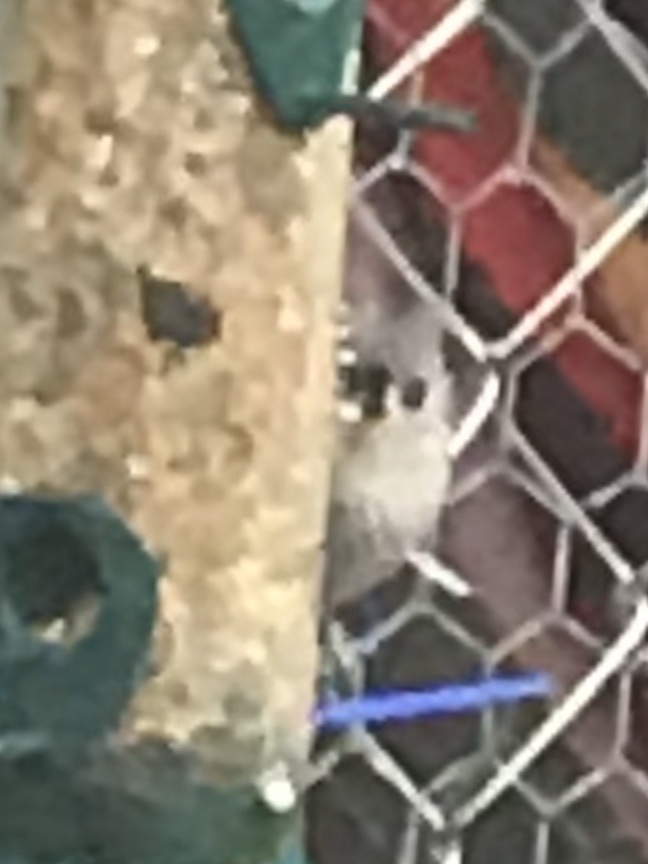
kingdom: Animalia
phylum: Chordata
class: Aves
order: Passeriformes
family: Paridae
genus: Baeolophus
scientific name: Baeolophus bicolor
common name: Tufted titmouse
